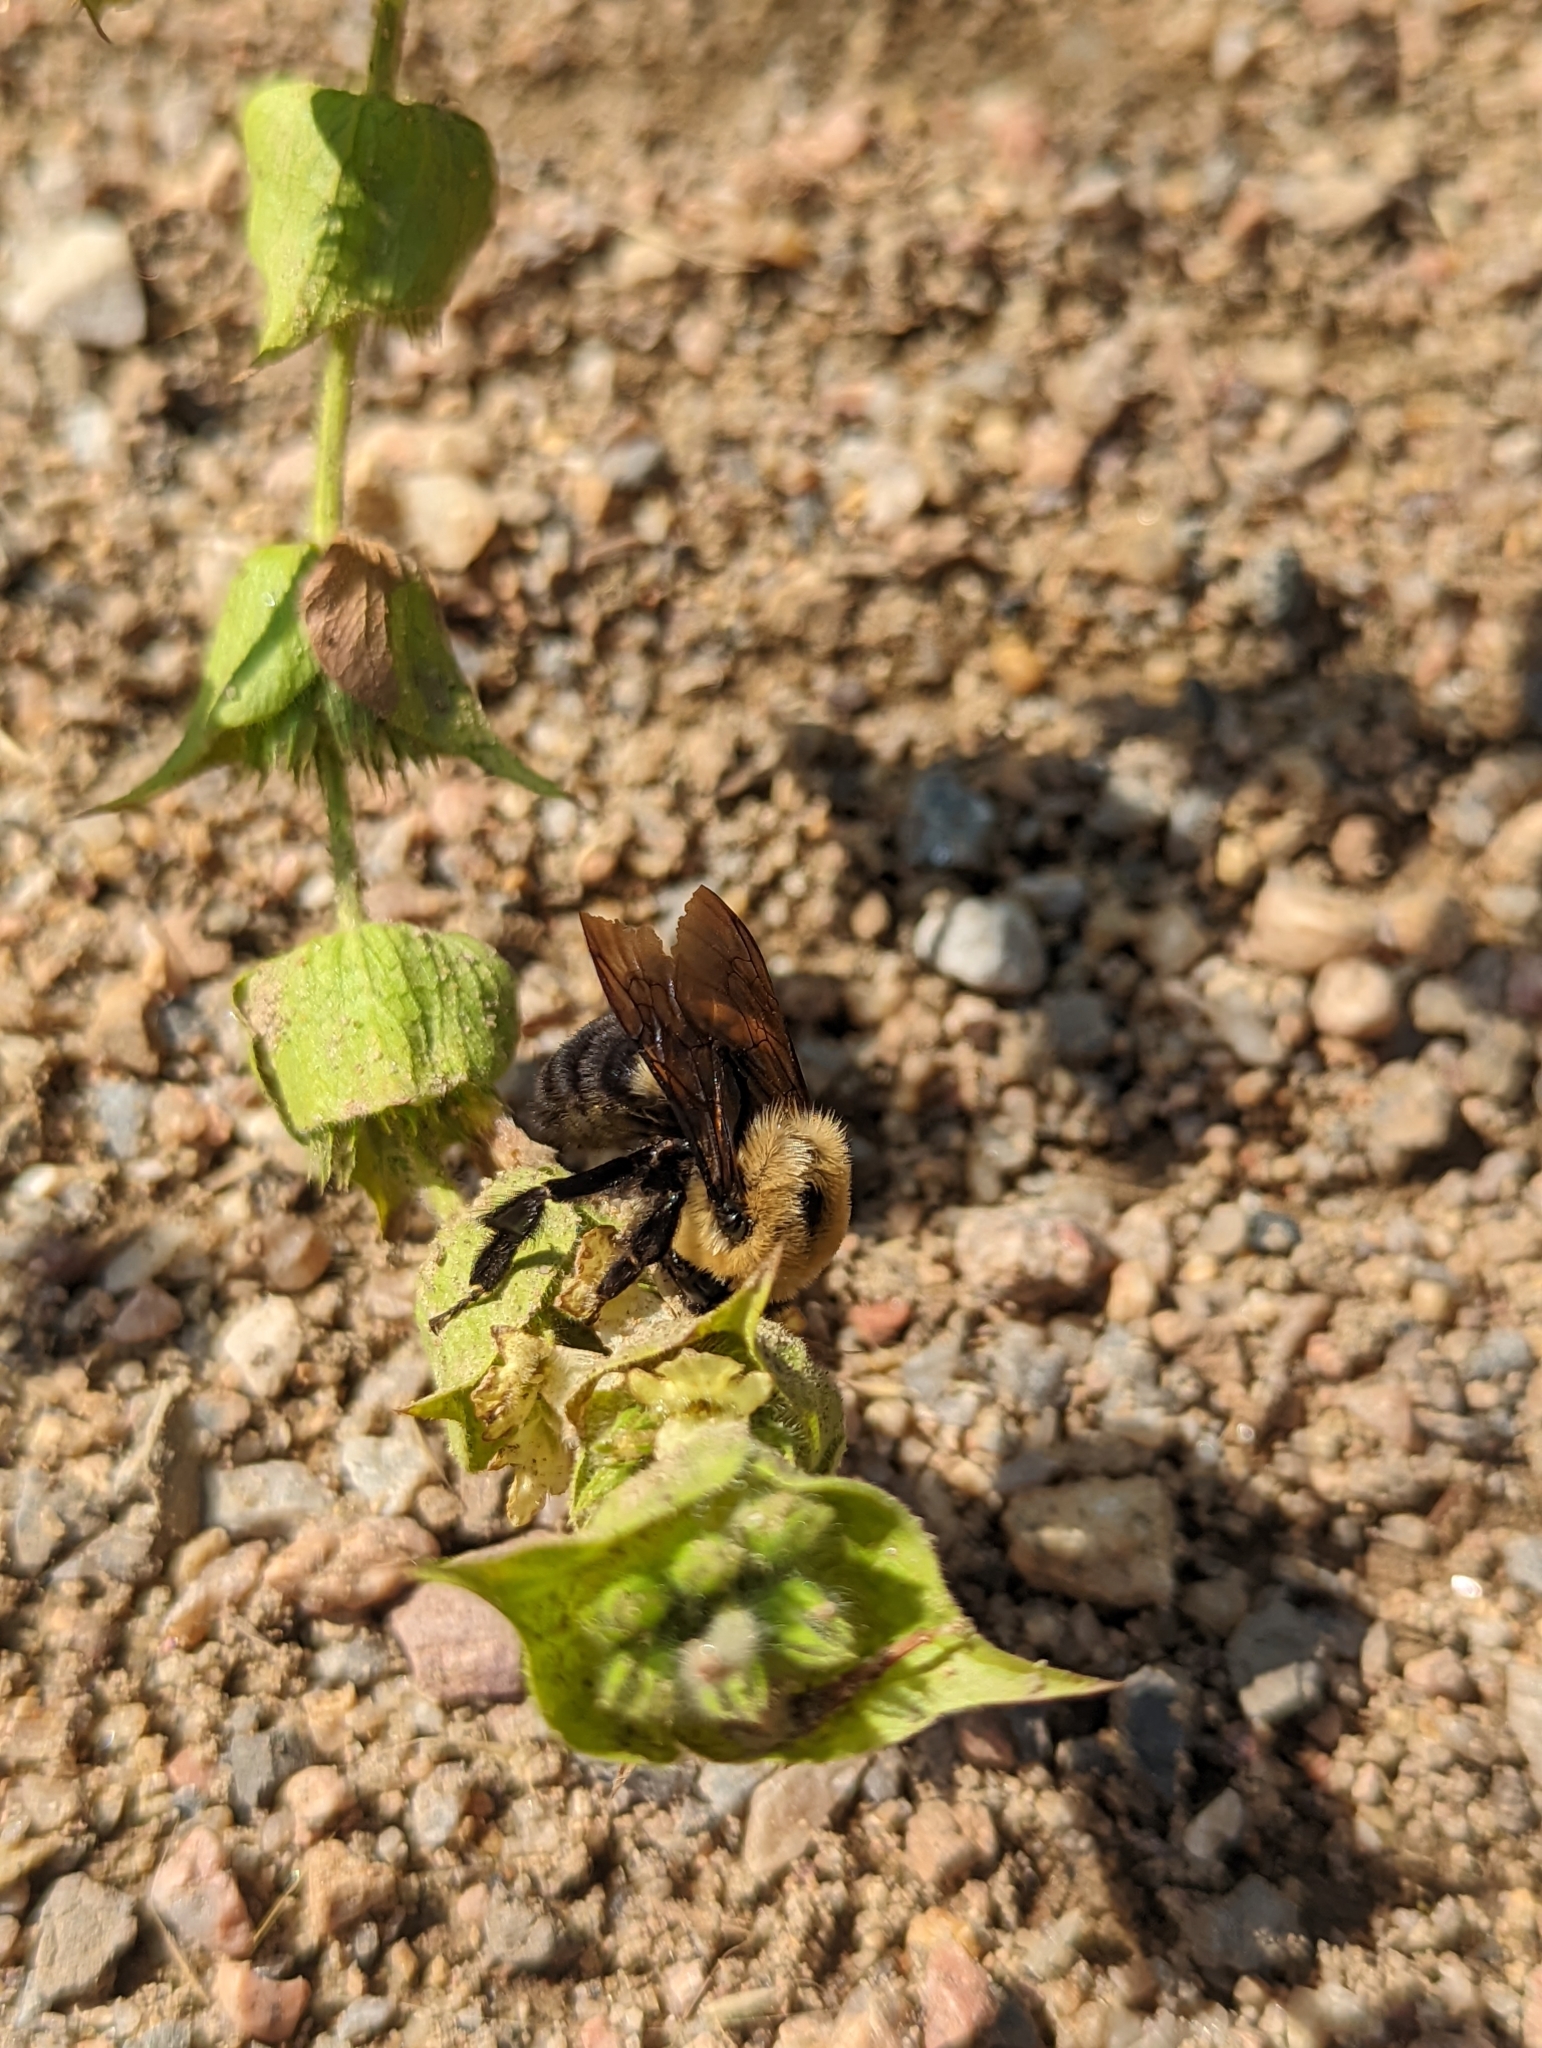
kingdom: Animalia
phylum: Arthropoda
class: Insecta
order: Hymenoptera
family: Apidae
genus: Bombus
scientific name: Bombus griseocollis
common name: Brown-belted bumble bee
